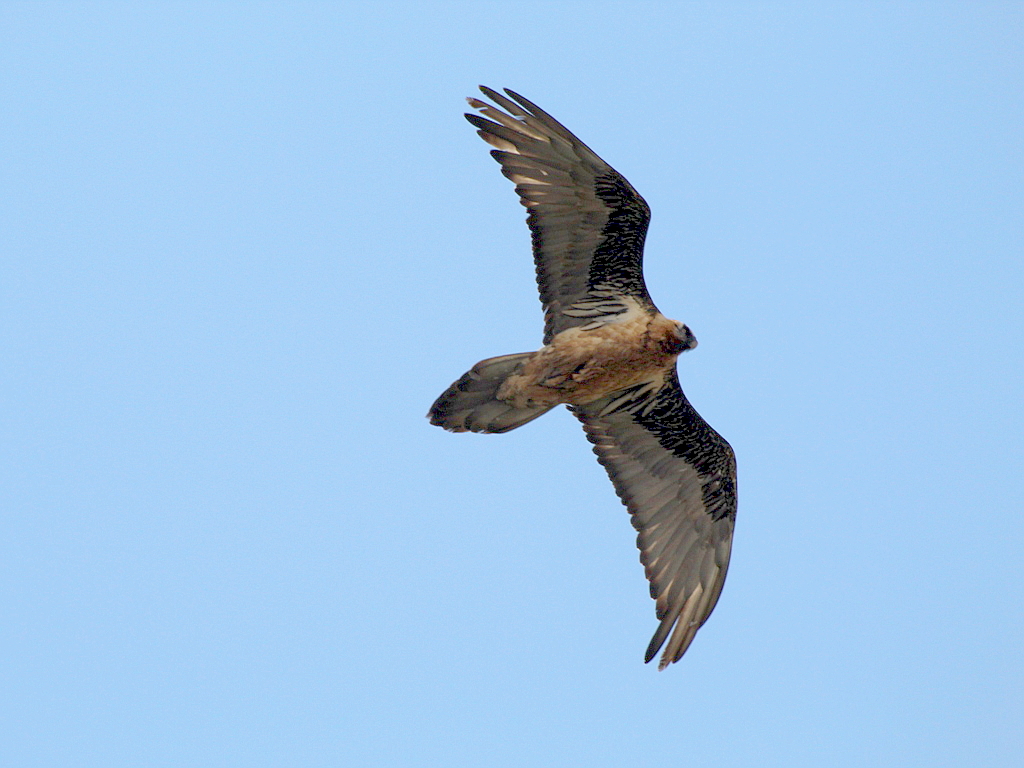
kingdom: Animalia
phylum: Chordata
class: Aves
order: Accipitriformes
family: Accipitridae
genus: Gypaetus
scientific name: Gypaetus barbatus
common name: Bearded vulture
